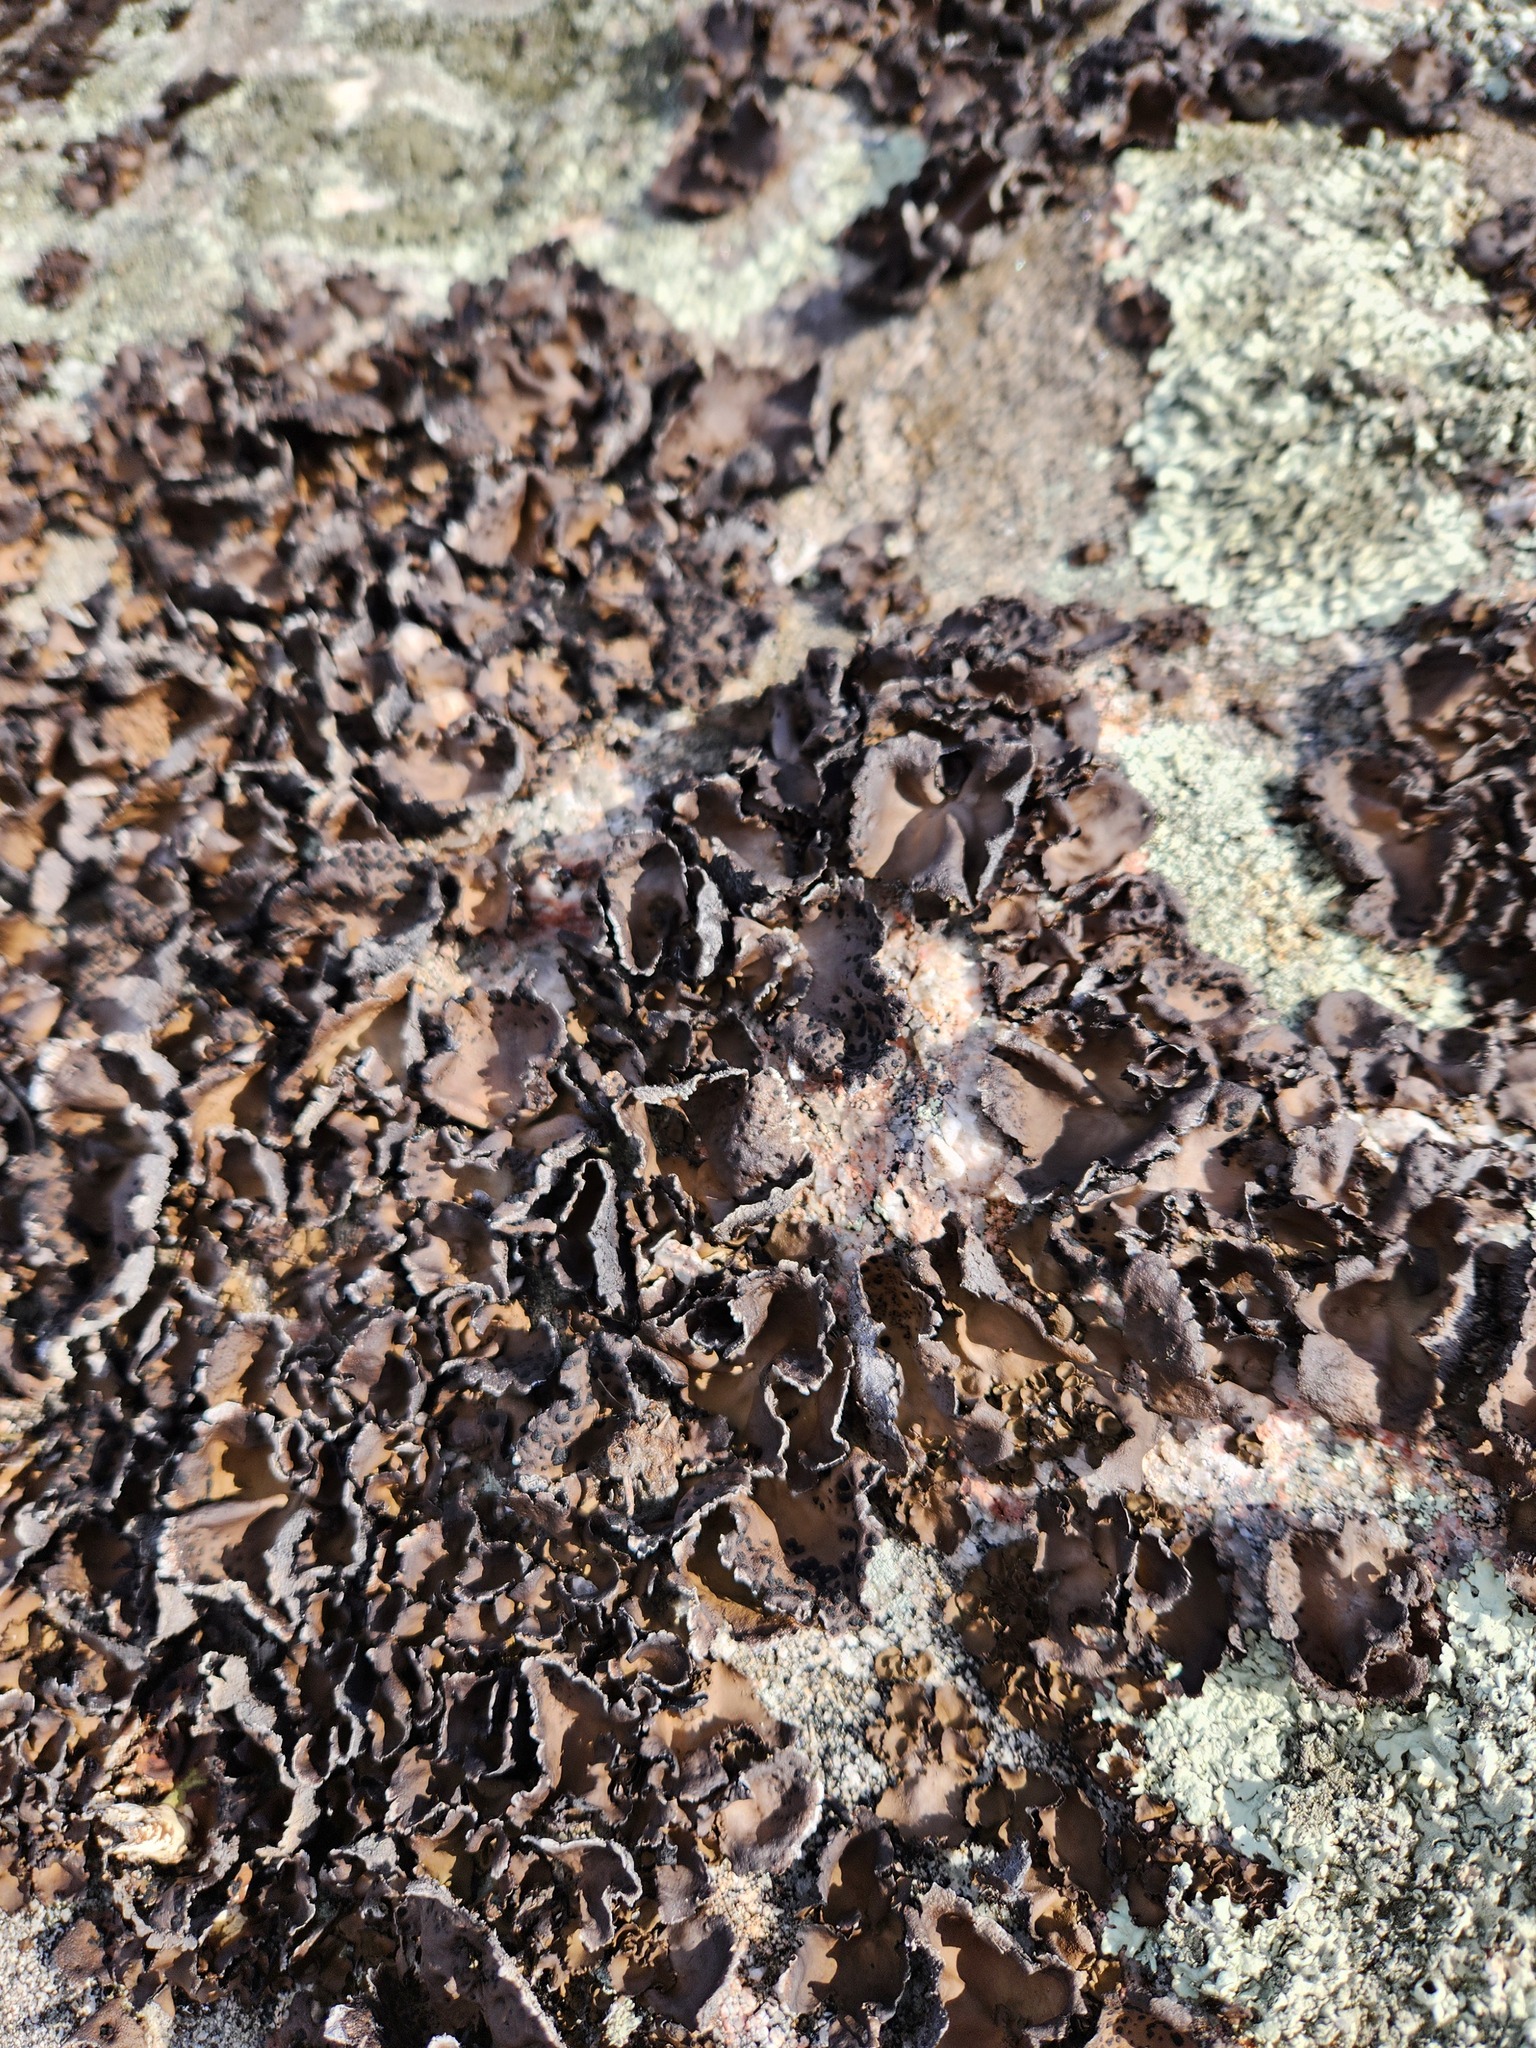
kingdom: Fungi
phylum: Ascomycota
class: Lecanoromycetes
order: Umbilicariales
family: Umbilicariaceae
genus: Umbilicaria
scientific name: Umbilicaria muhlenbergii
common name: Lesser rocktripe
